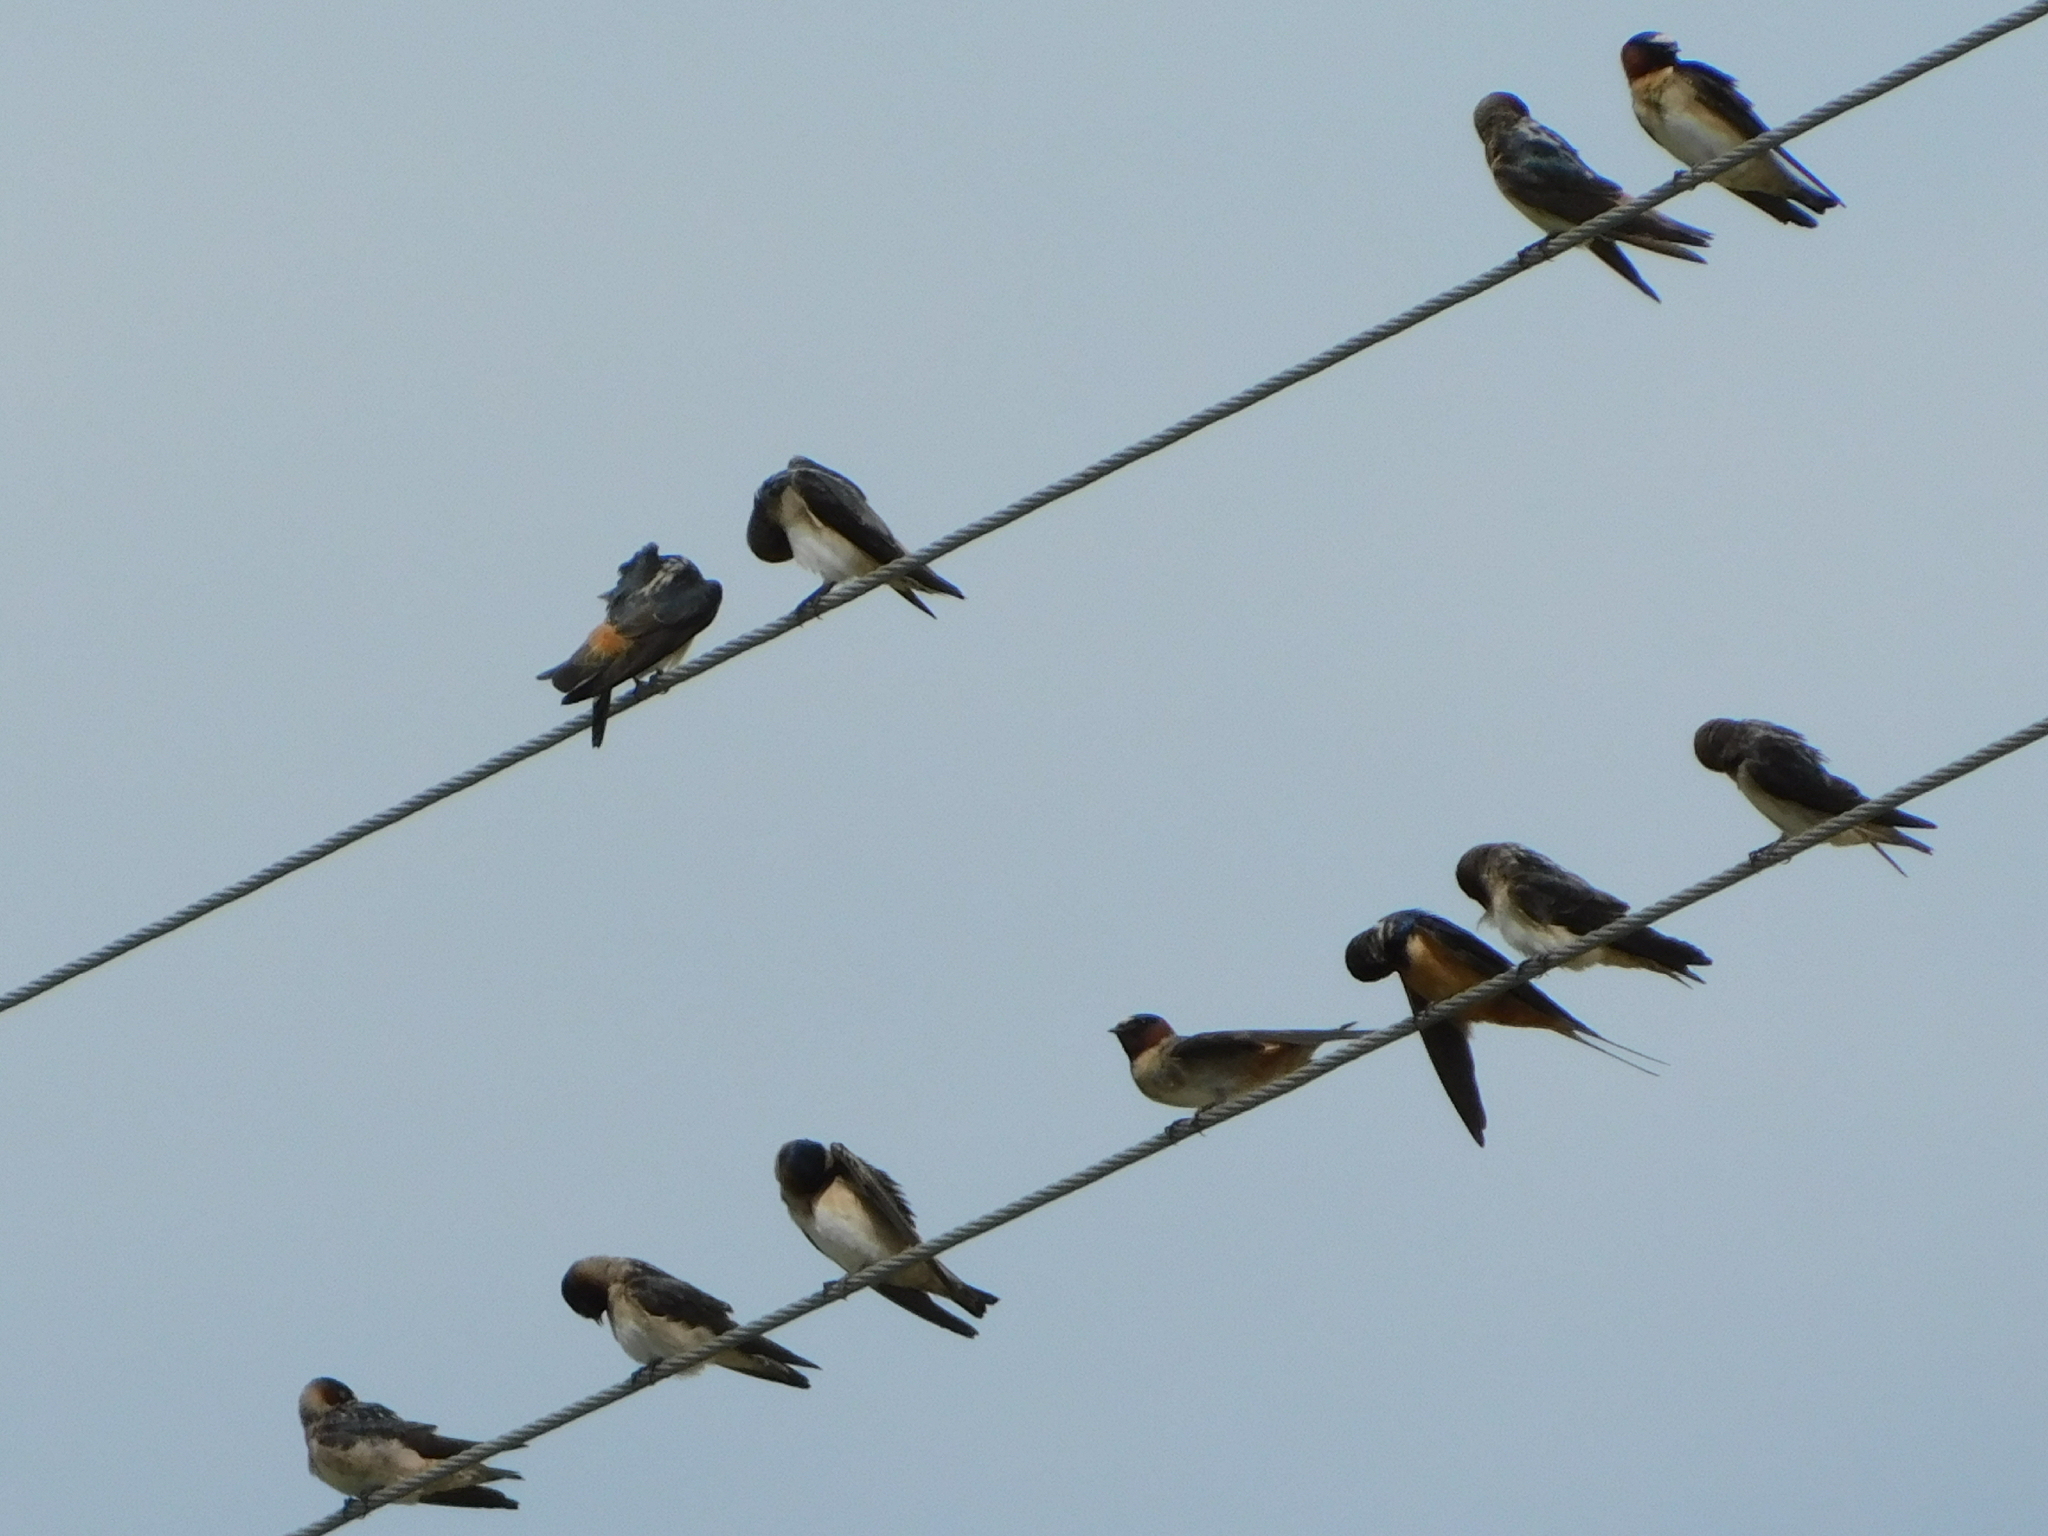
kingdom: Animalia
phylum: Chordata
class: Aves
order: Passeriformes
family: Hirundinidae
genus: Hirundo
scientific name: Hirundo rustica
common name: Barn swallow
